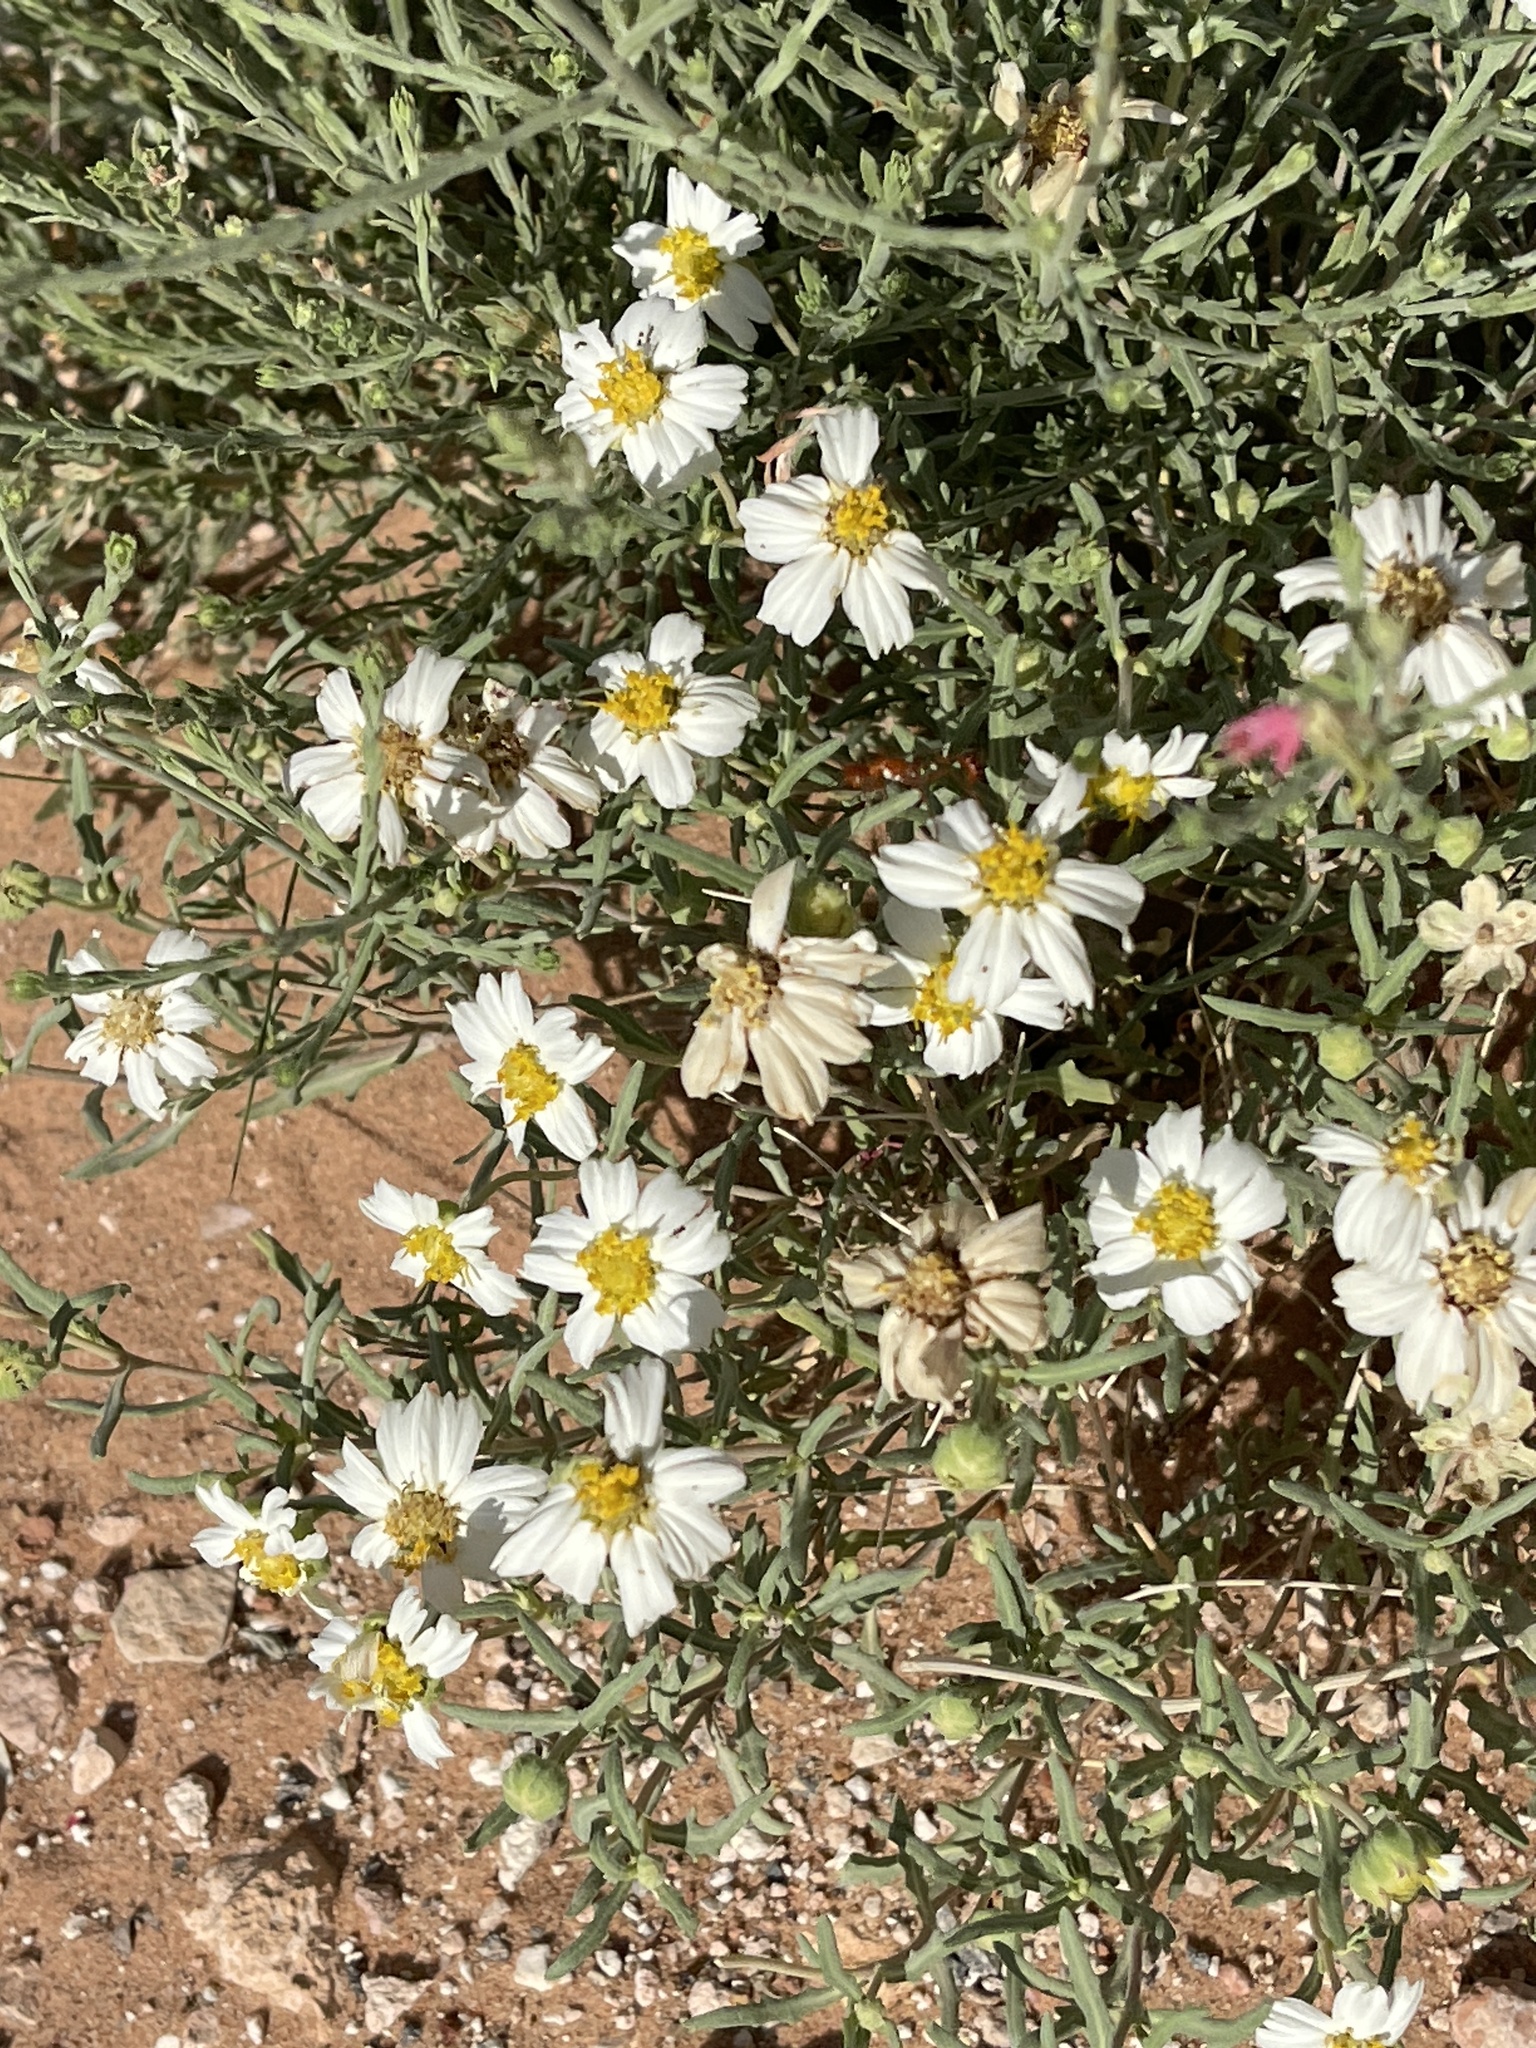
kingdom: Plantae
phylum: Tracheophyta
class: Magnoliopsida
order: Asterales
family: Asteraceae
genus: Melampodium
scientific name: Melampodium leucanthum
